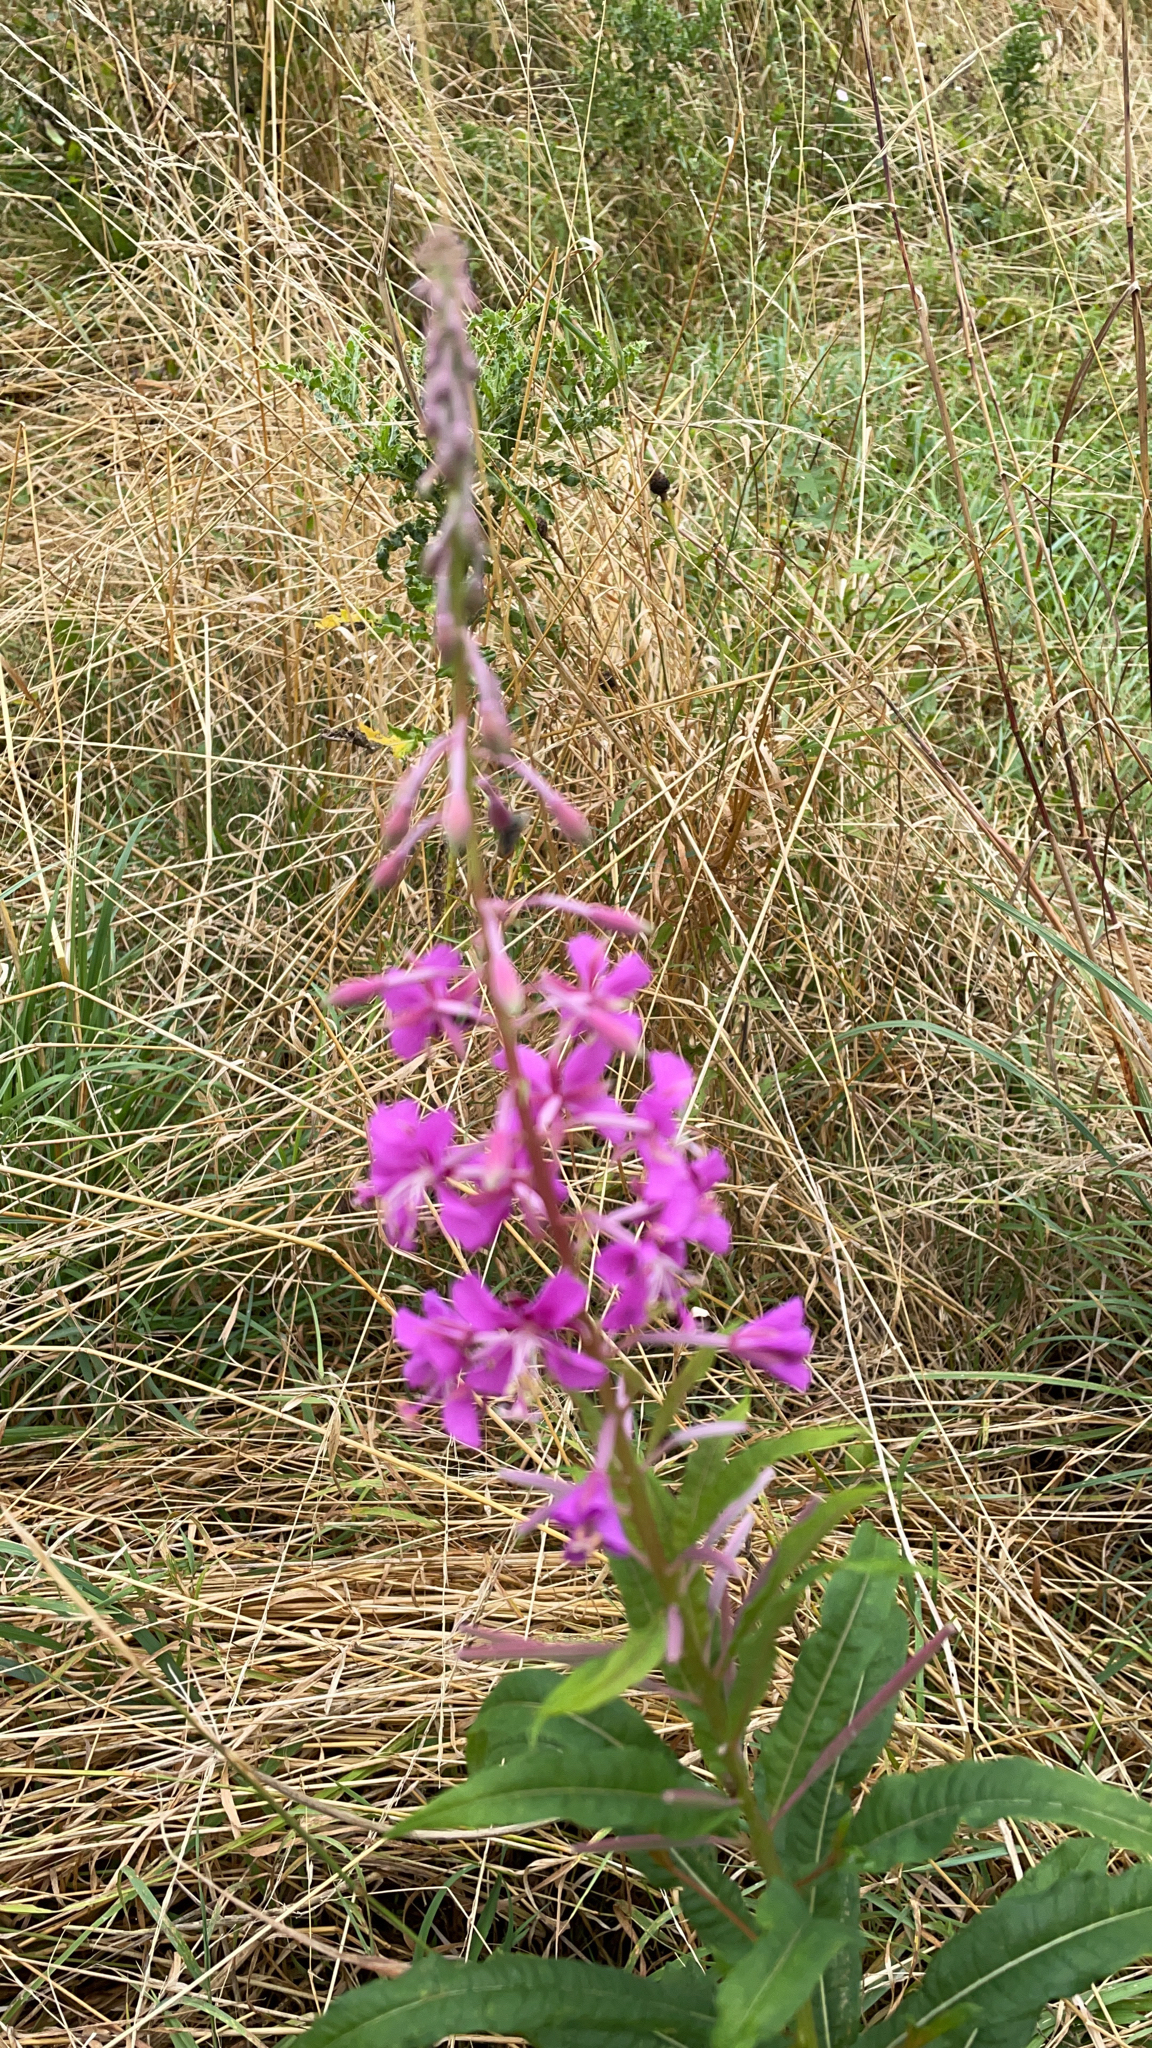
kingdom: Plantae
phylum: Tracheophyta
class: Magnoliopsida
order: Myrtales
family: Onagraceae
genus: Chamaenerion
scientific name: Chamaenerion angustifolium
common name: Fireweed
